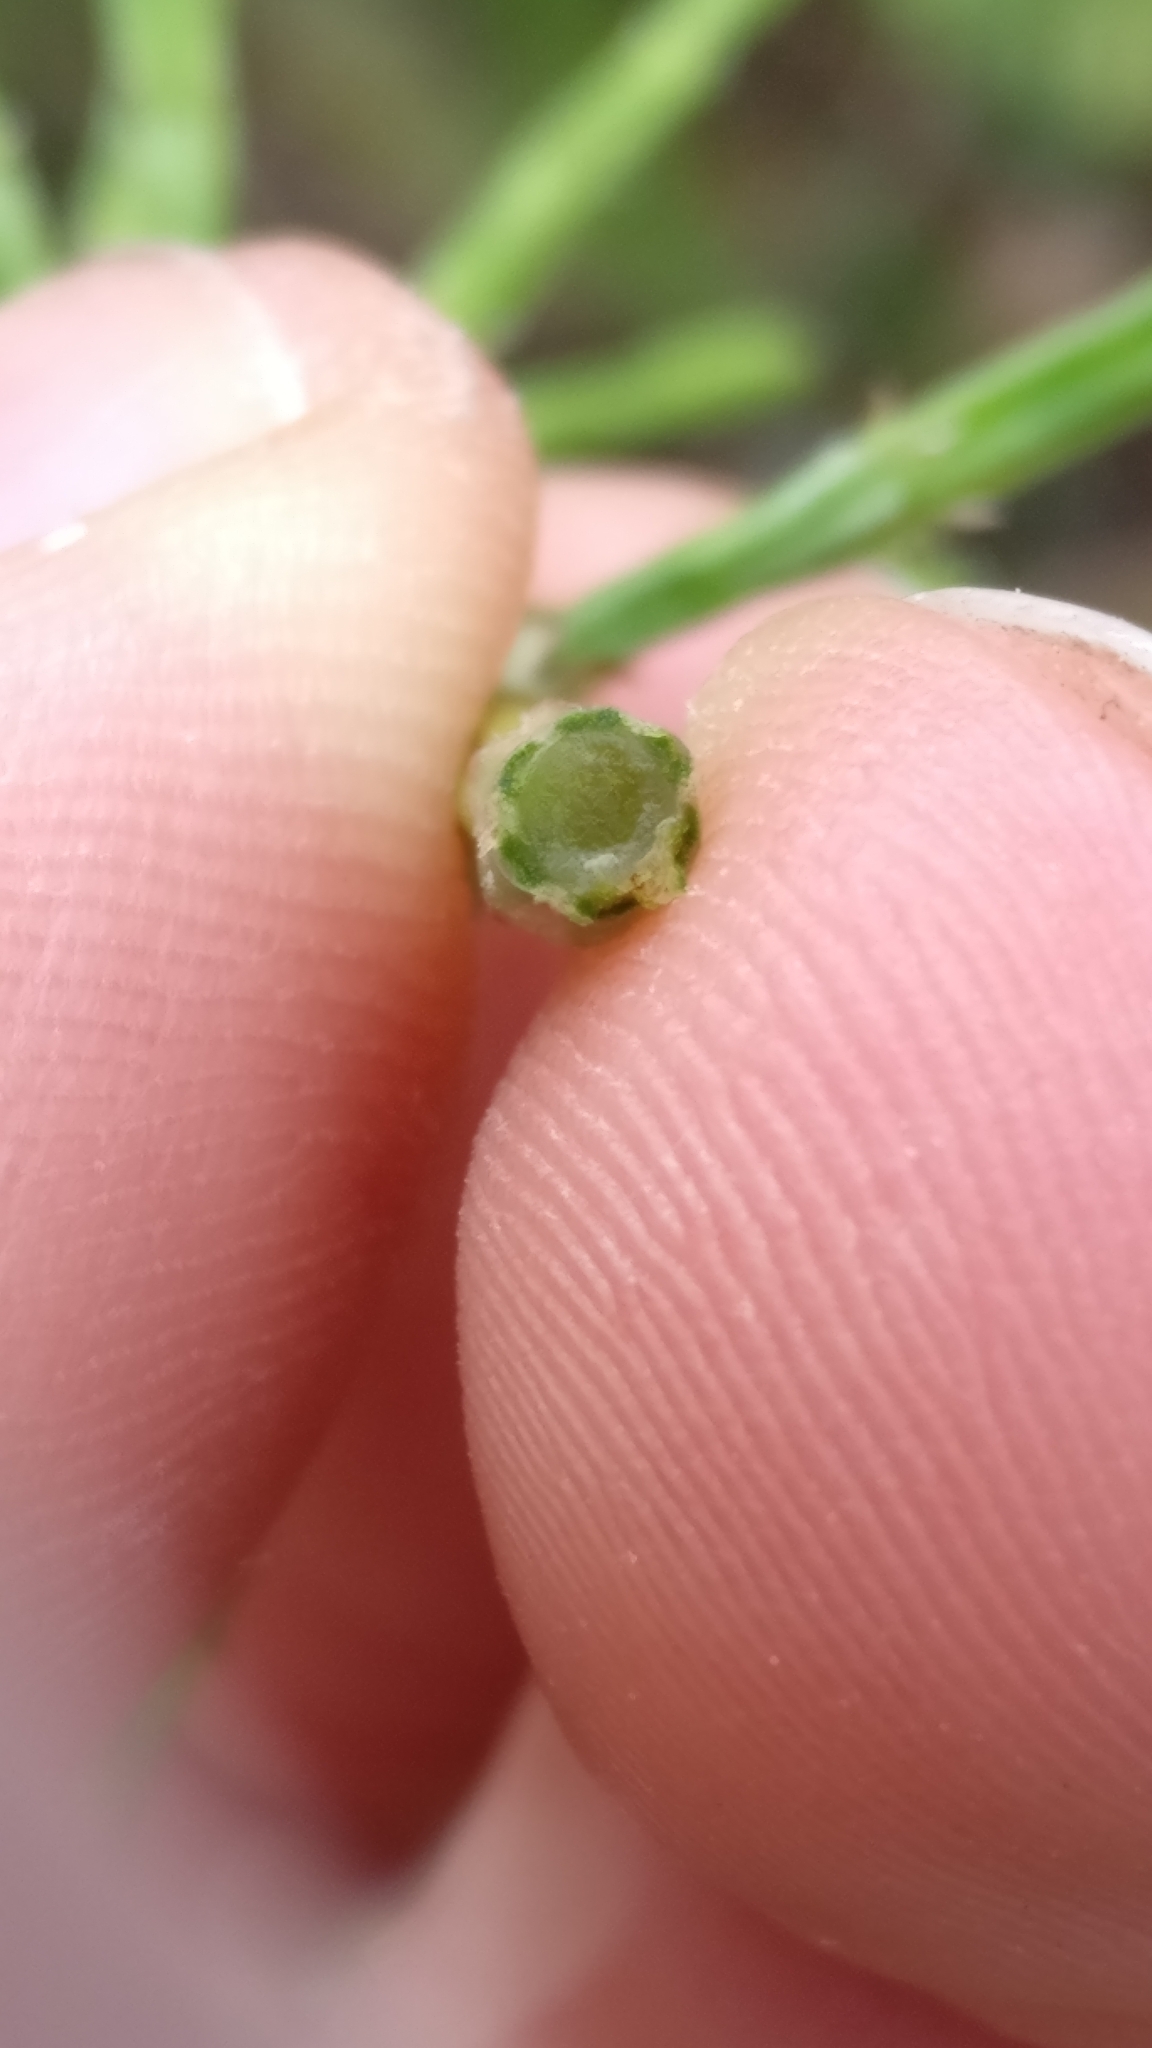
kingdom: Plantae
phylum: Tracheophyta
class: Polypodiopsida
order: Equisetales
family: Equisetaceae
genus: Equisetum
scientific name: Equisetum arvense
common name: Field horsetail
